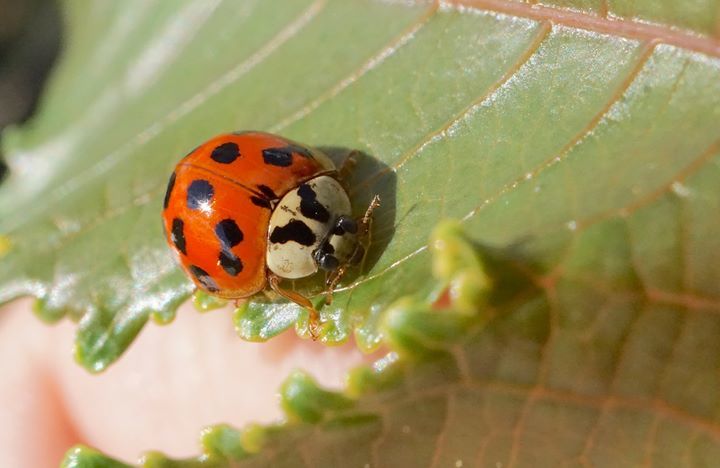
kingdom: Animalia
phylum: Arthropoda
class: Insecta
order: Coleoptera
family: Coccinellidae
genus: Harmonia
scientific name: Harmonia axyridis
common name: Harlequin ladybird
